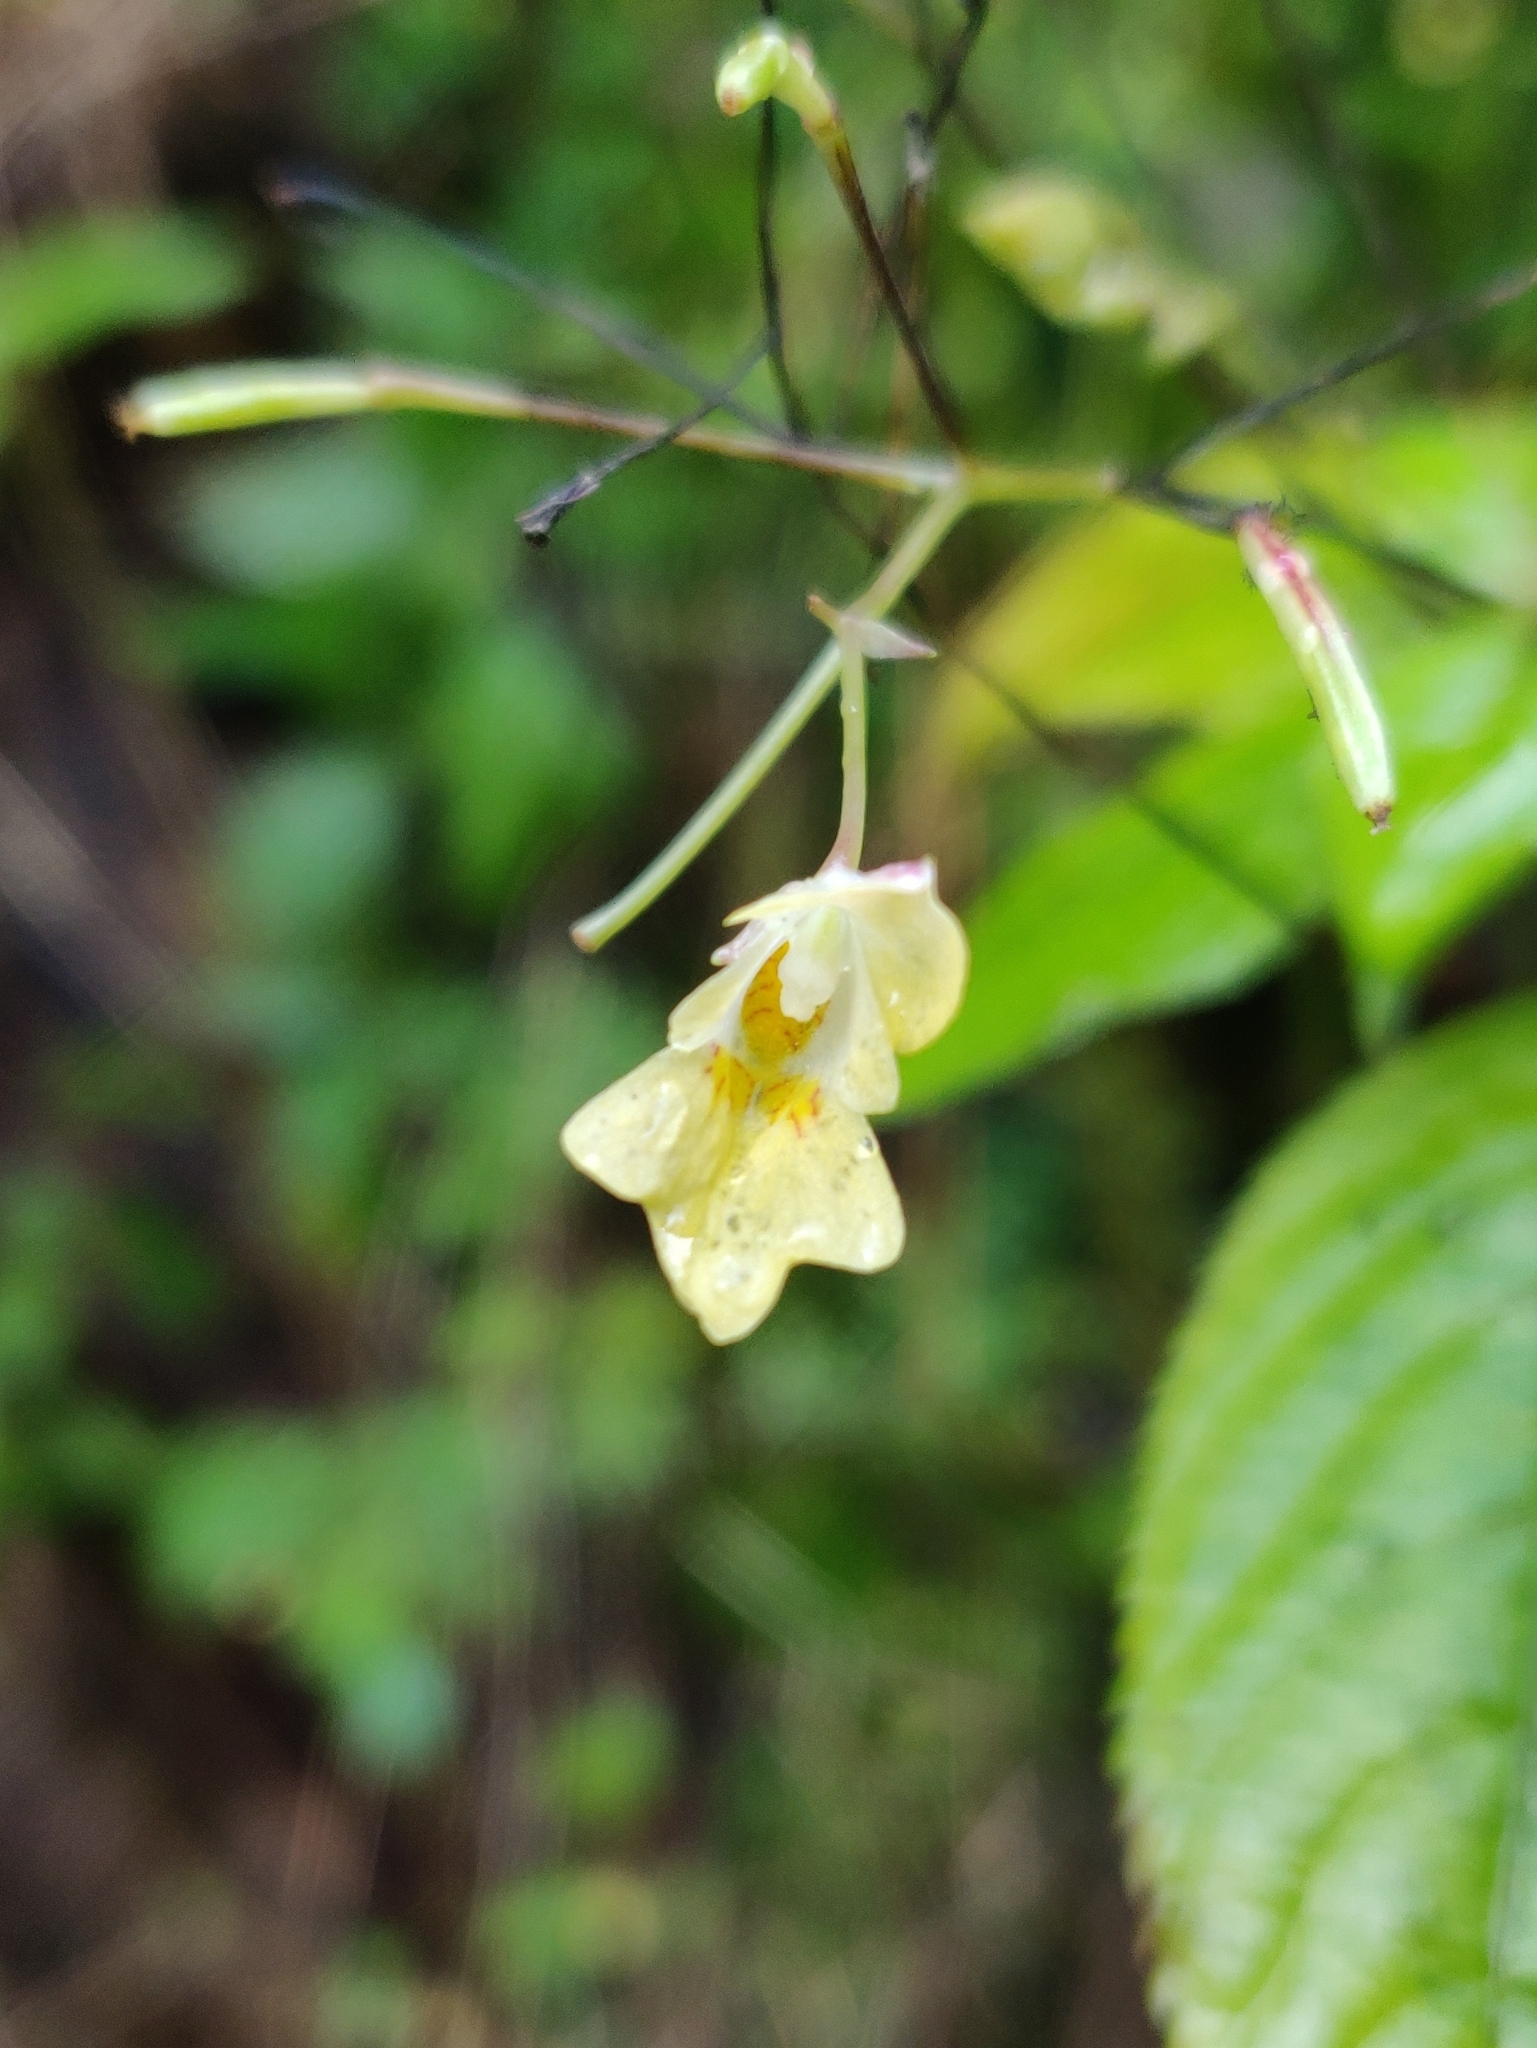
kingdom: Plantae
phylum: Tracheophyta
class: Magnoliopsida
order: Ericales
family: Balsaminaceae
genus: Impatiens
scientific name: Impatiens parviflora
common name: Small balsam
